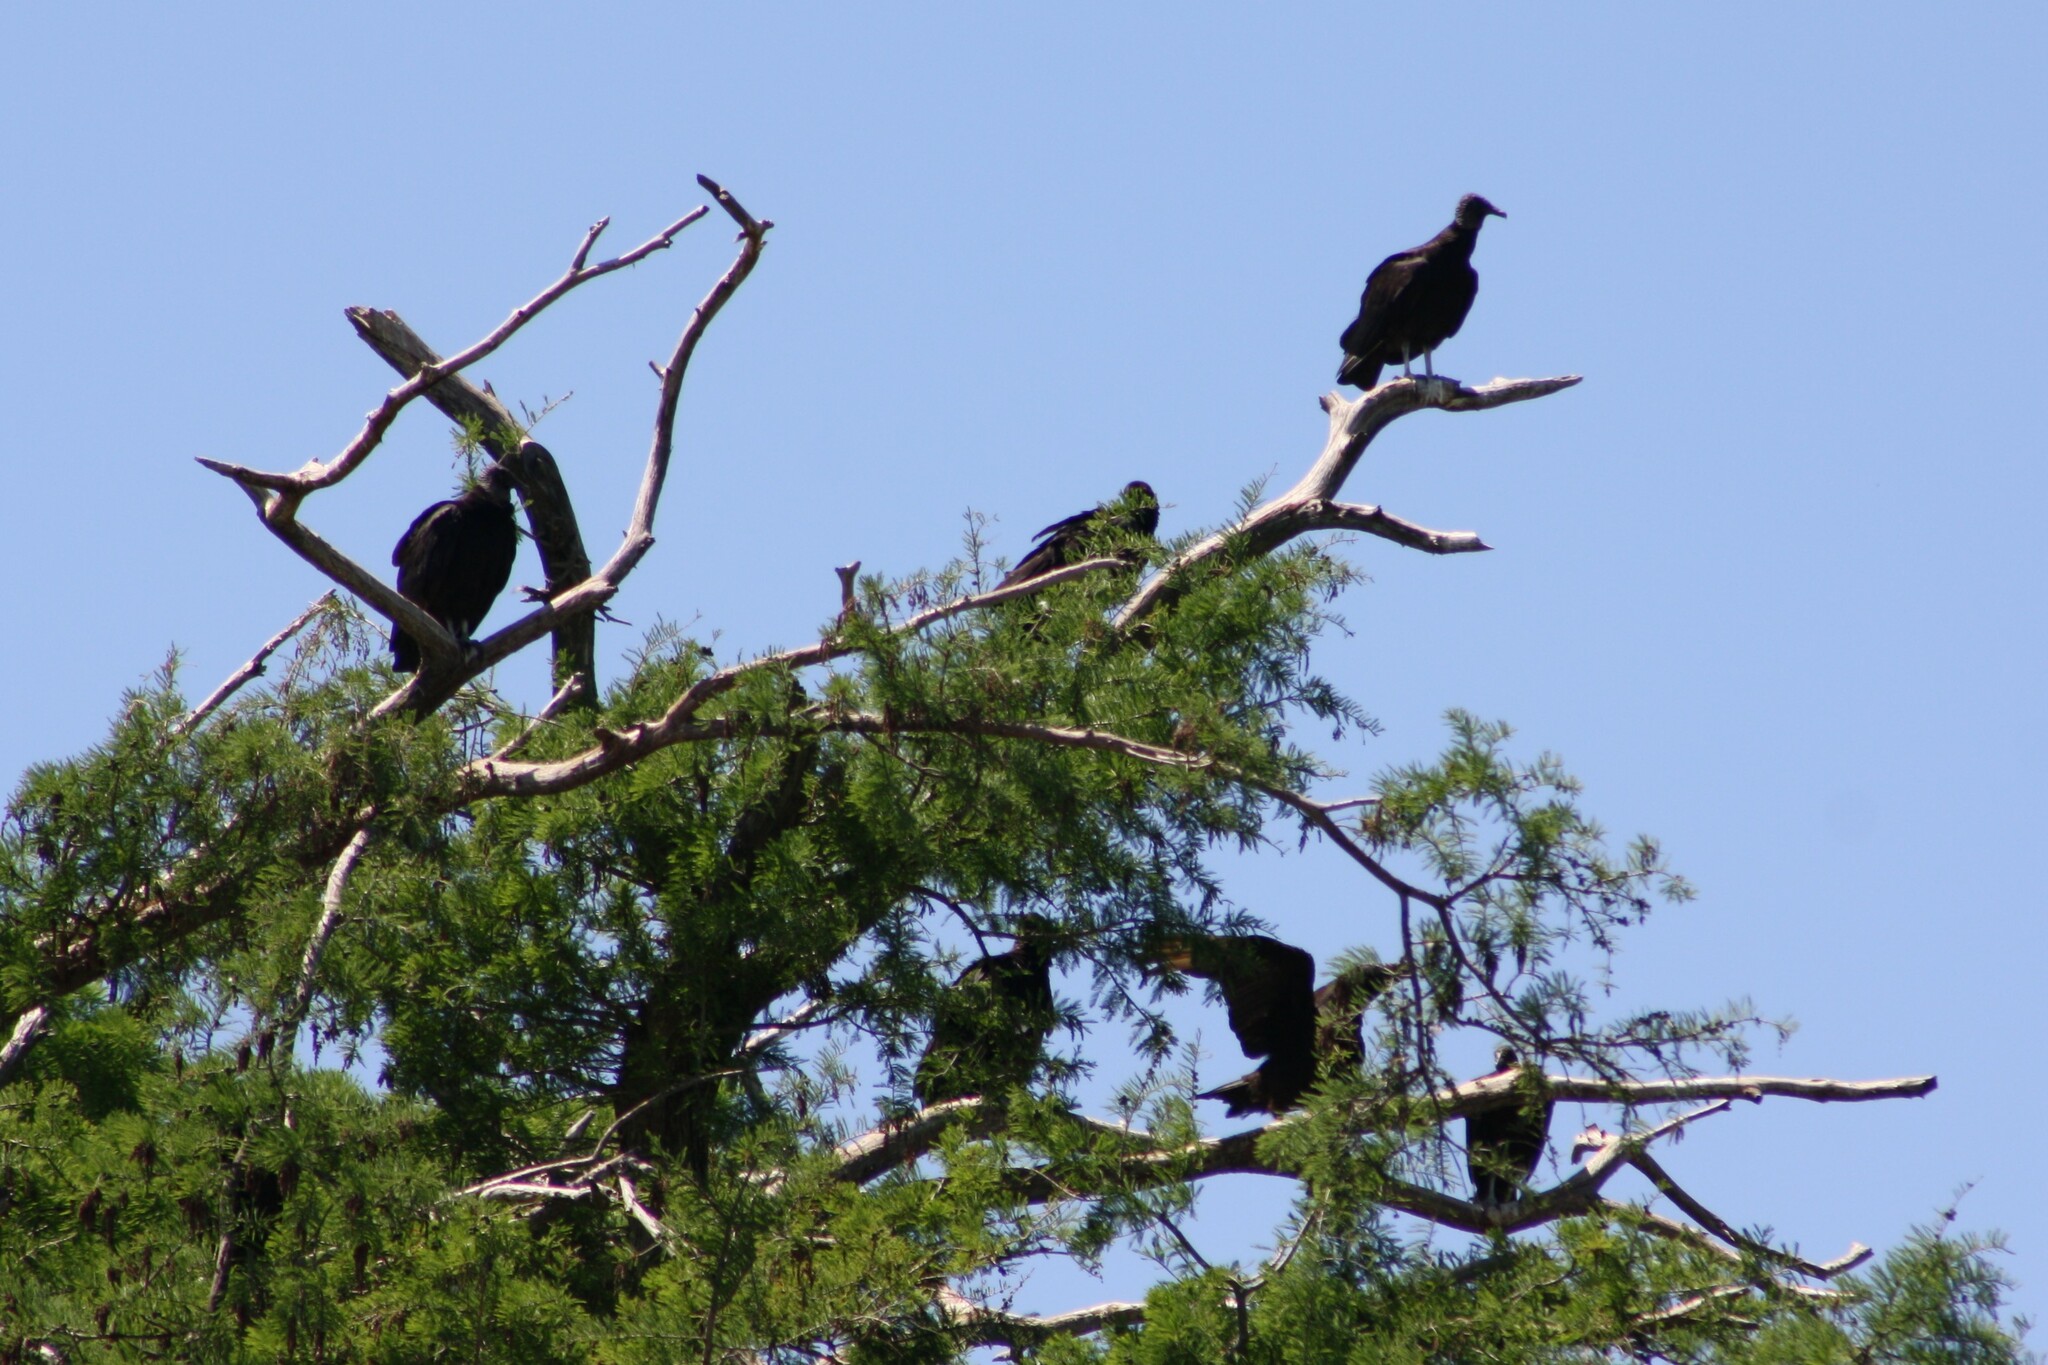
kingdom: Animalia
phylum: Chordata
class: Aves
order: Accipitriformes
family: Cathartidae
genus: Coragyps
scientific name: Coragyps atratus
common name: Black vulture
